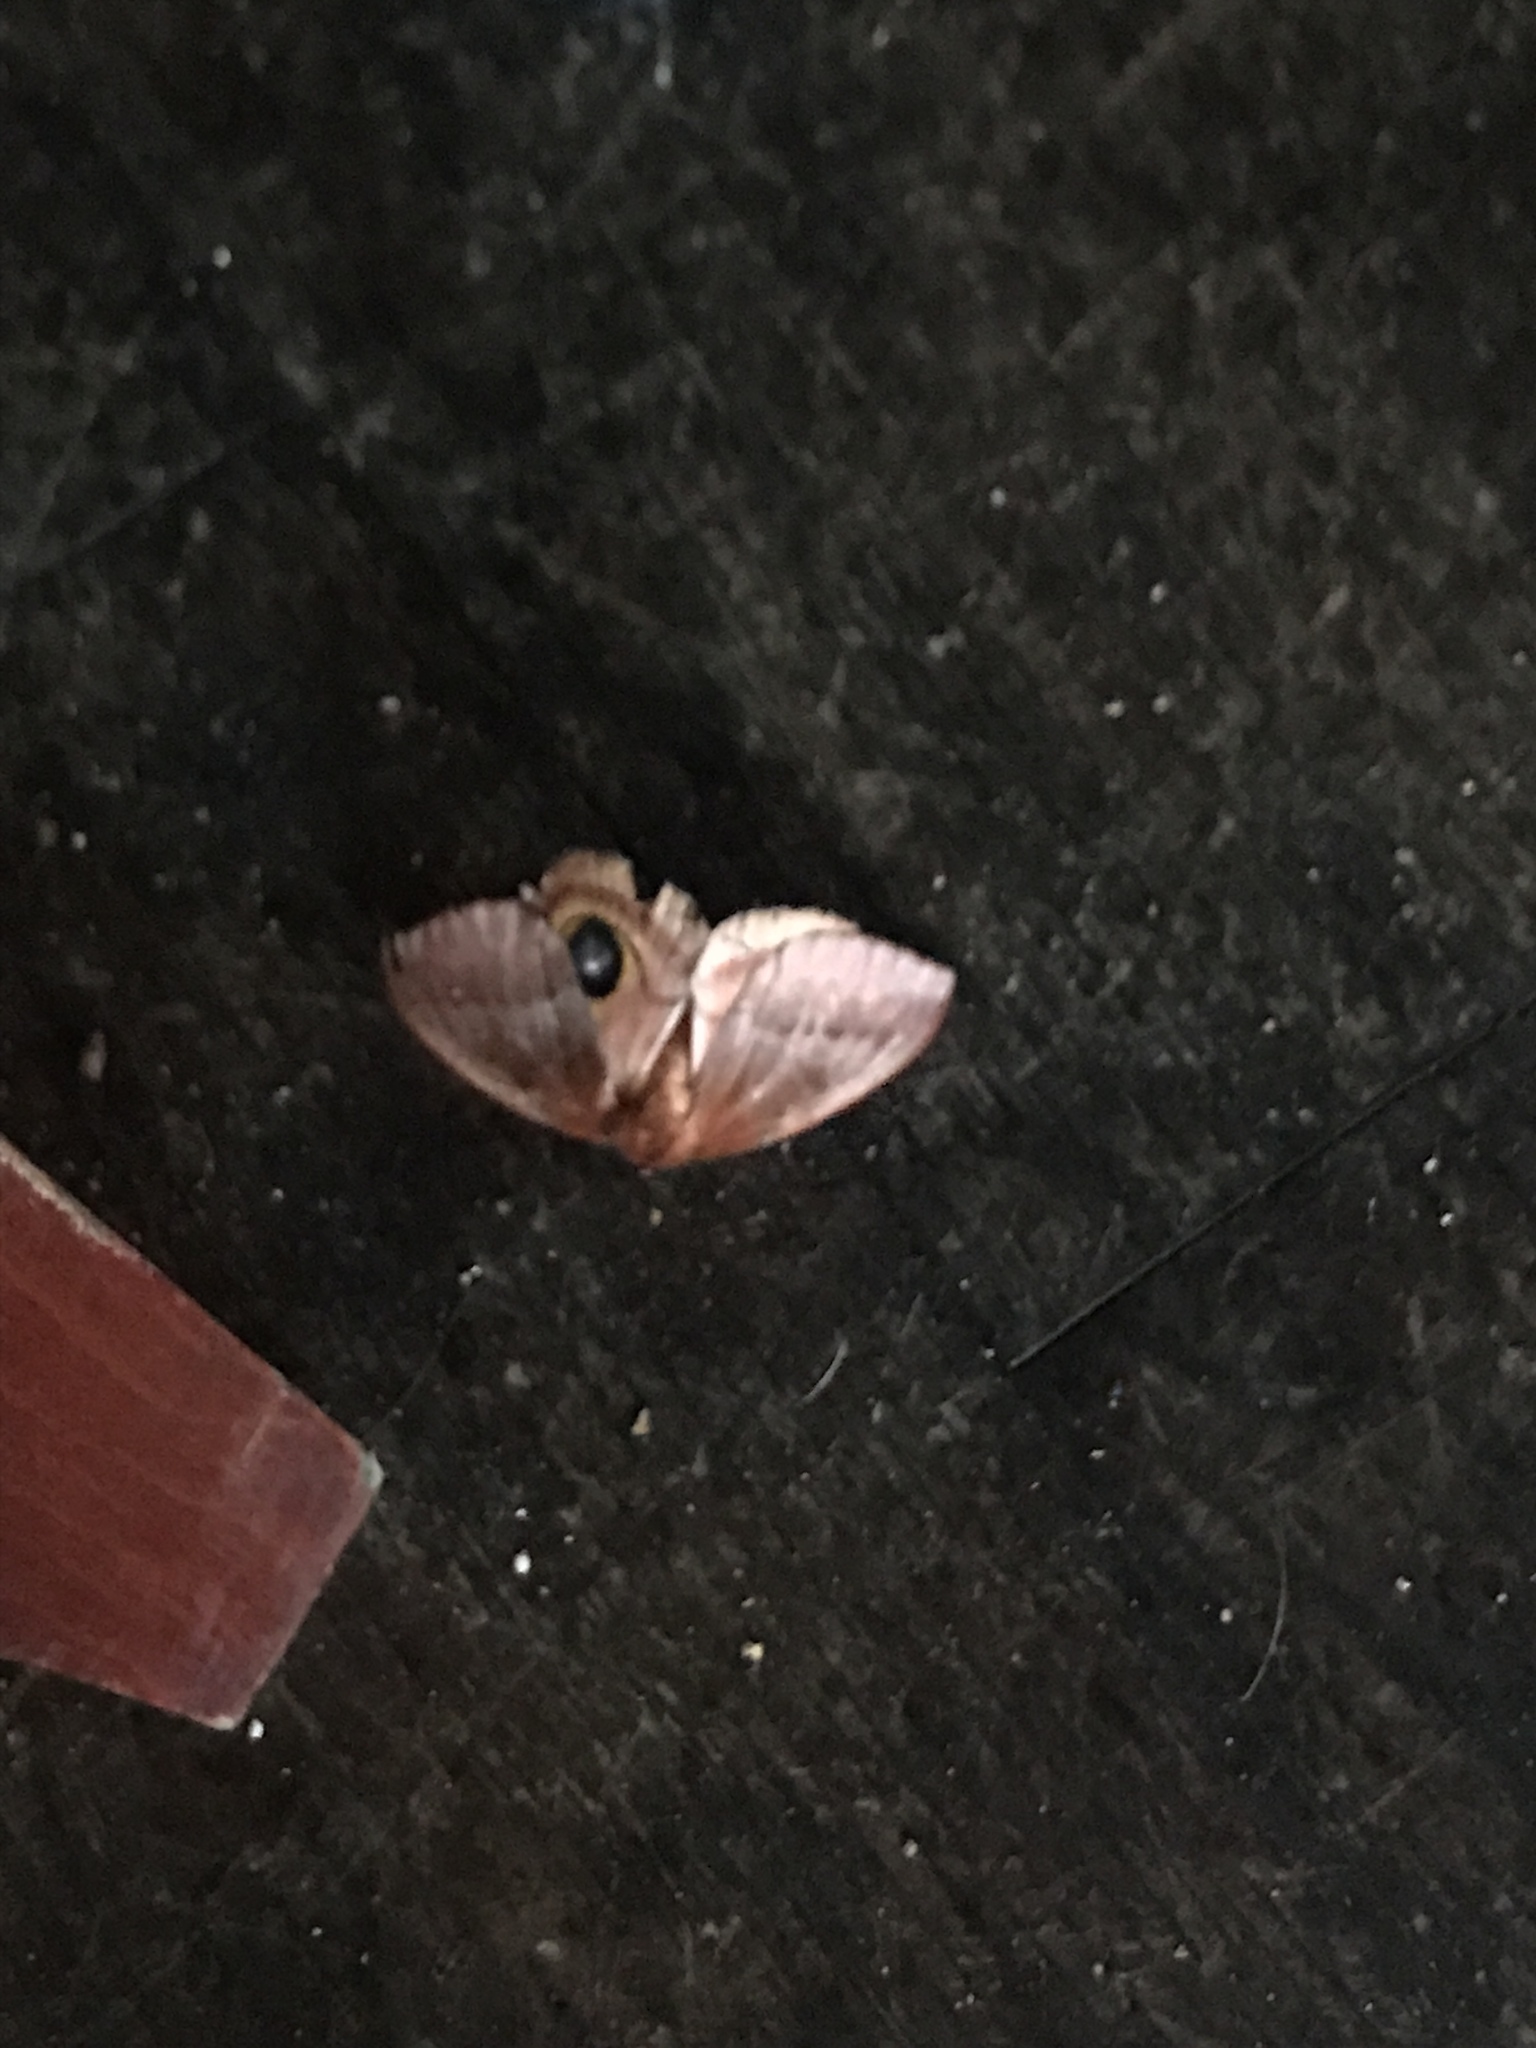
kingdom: Animalia
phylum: Arthropoda
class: Insecta
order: Lepidoptera
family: Saturniidae
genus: Automeris
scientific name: Automeris io
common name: Io moth
